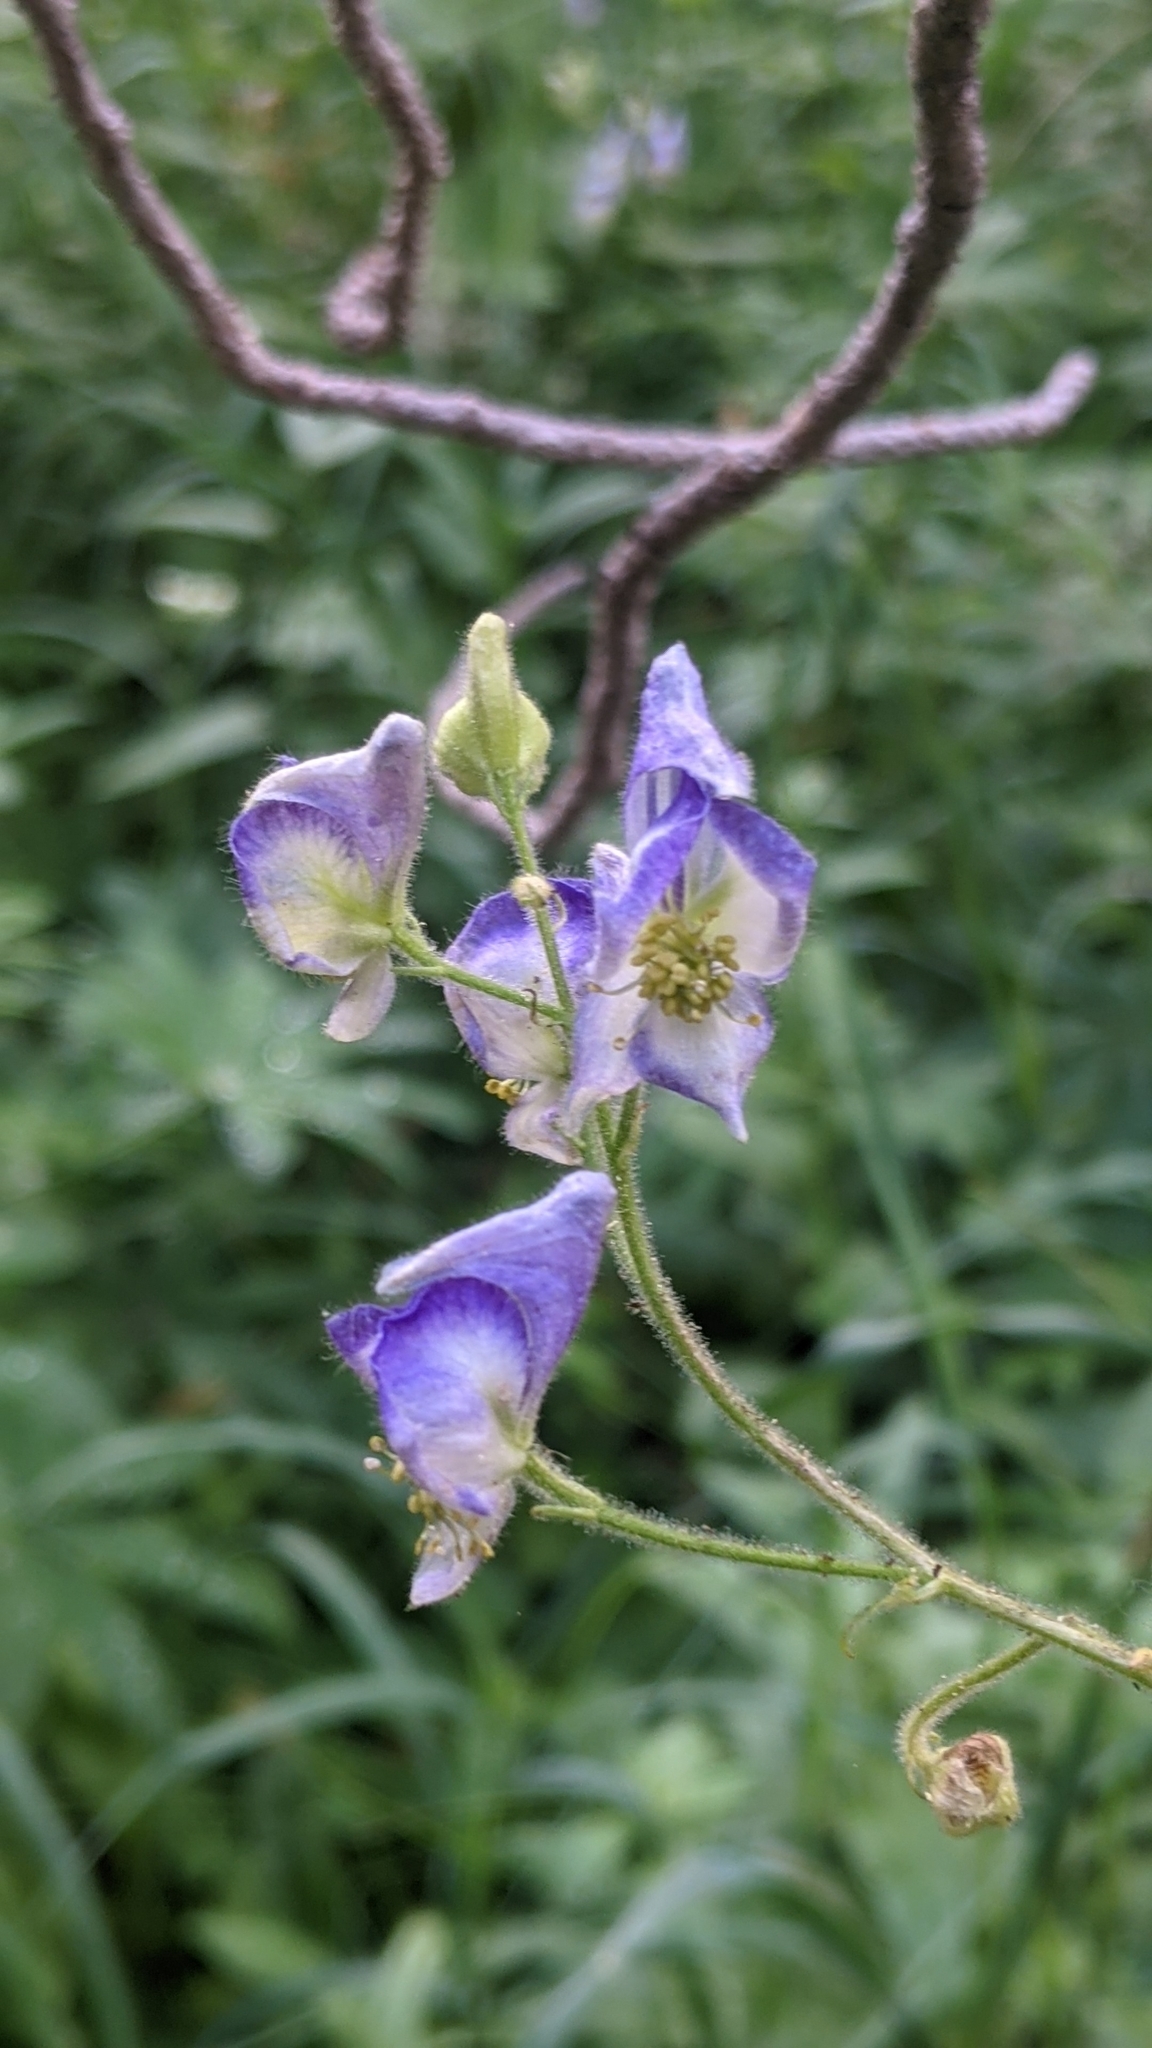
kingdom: Plantae
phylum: Tracheophyta
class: Magnoliopsida
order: Ranunculales
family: Ranunculaceae
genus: Aconitum
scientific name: Aconitum columbianum
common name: Columbia aconite
